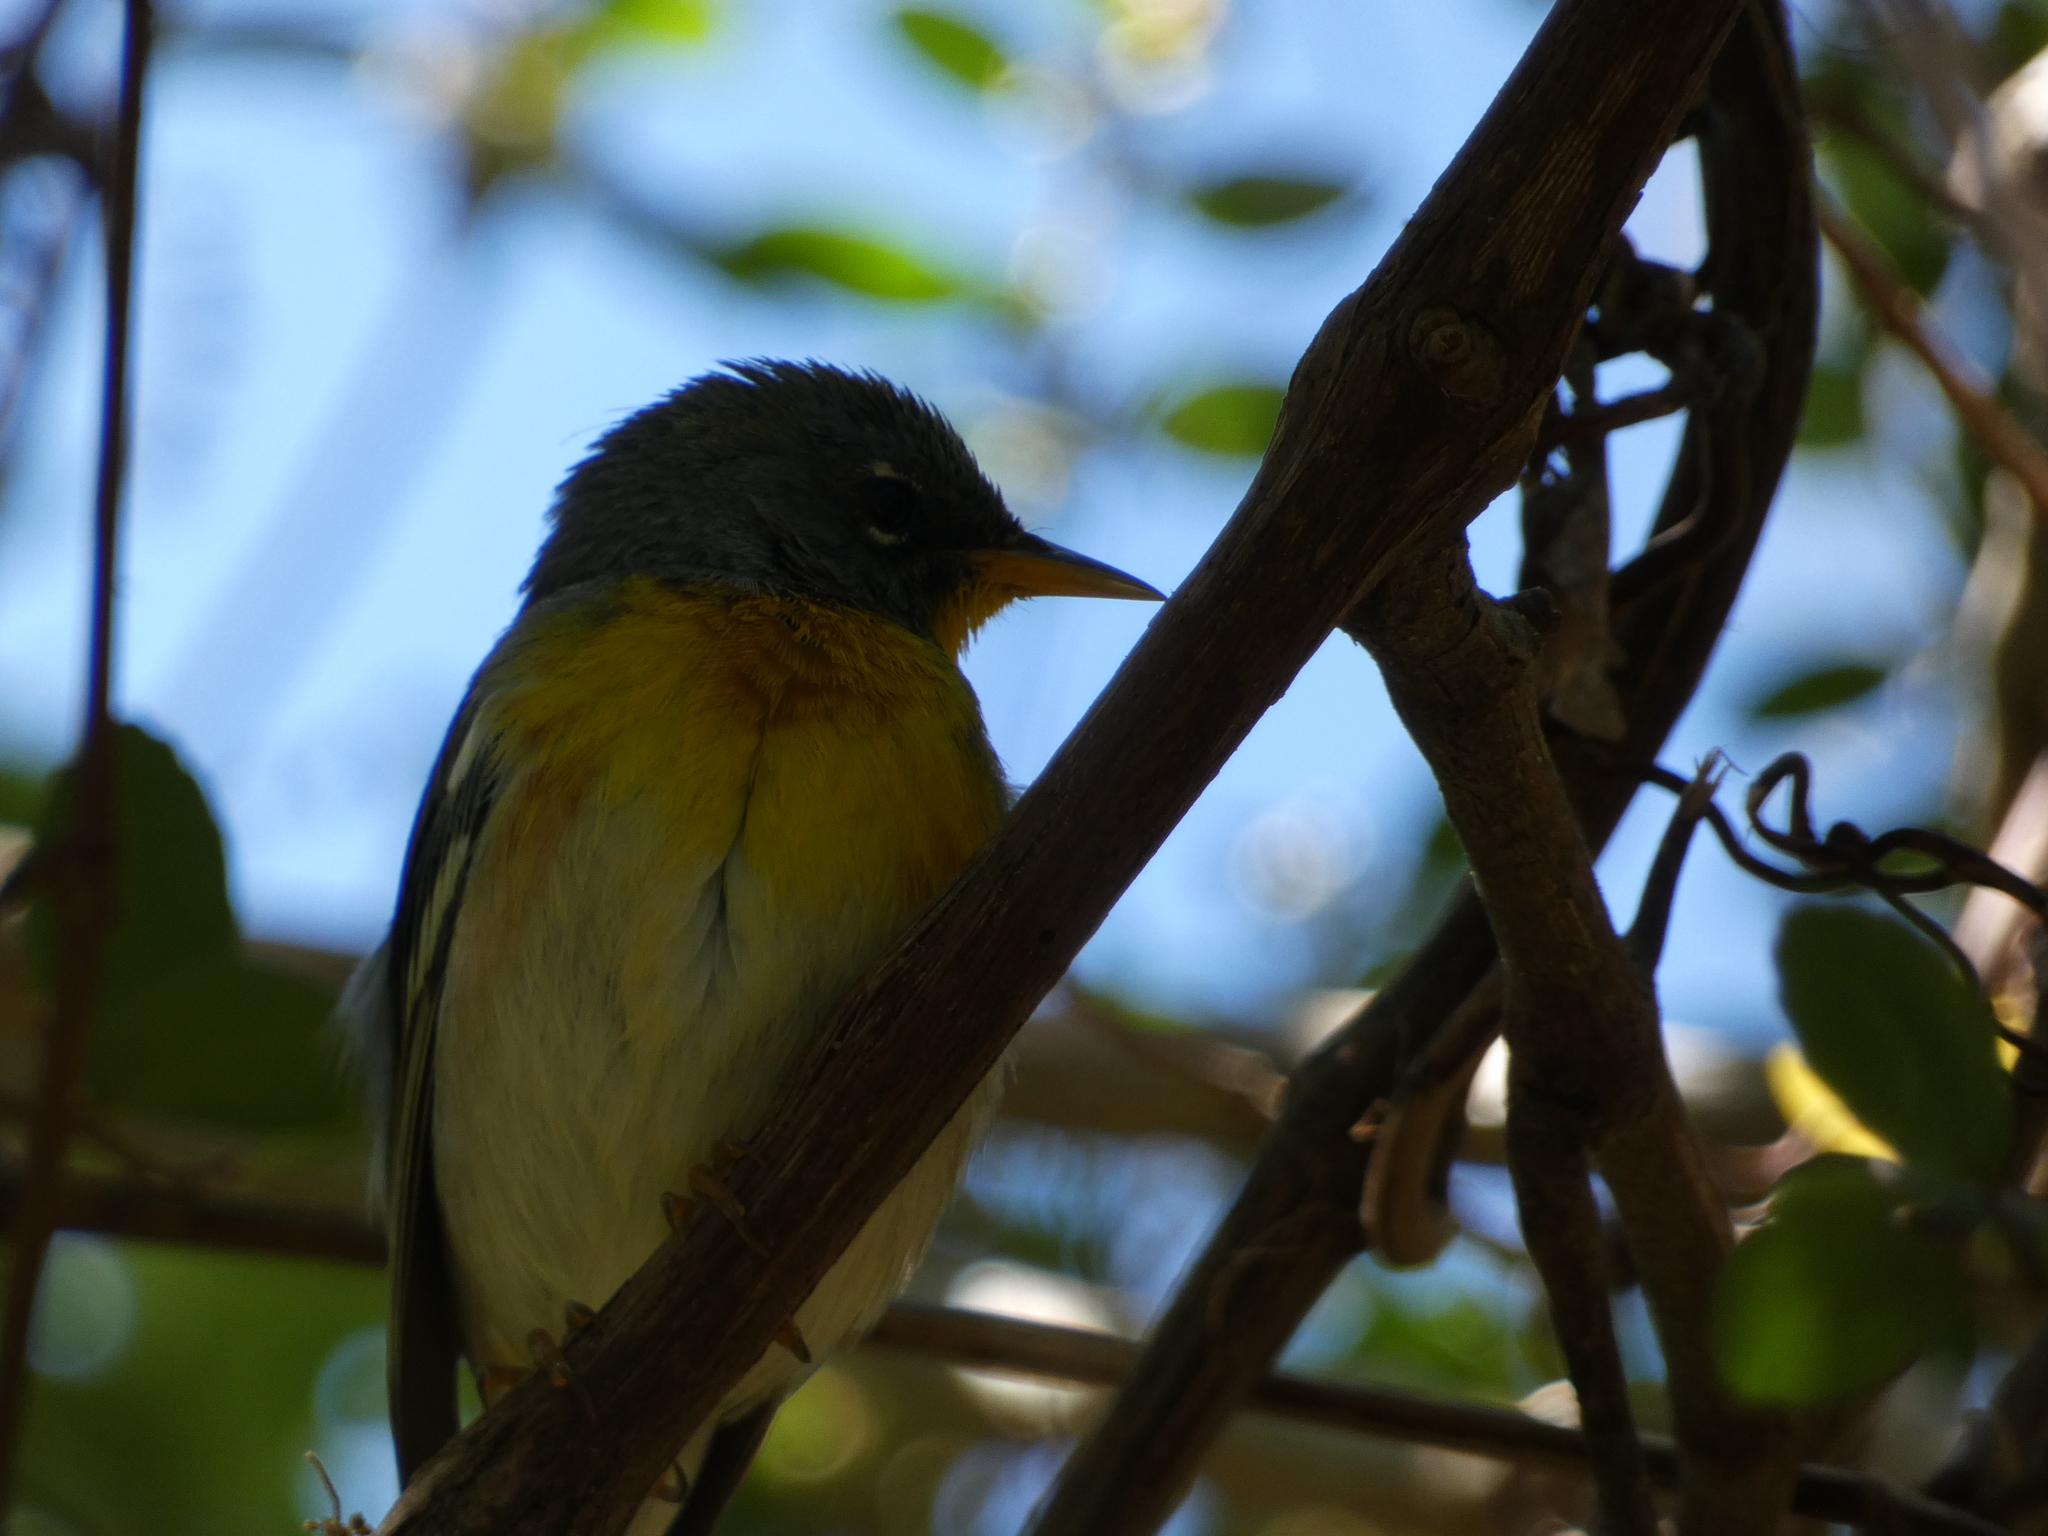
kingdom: Animalia
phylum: Chordata
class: Aves
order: Passeriformes
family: Parulidae
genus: Setophaga
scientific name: Setophaga americana
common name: Northern parula
